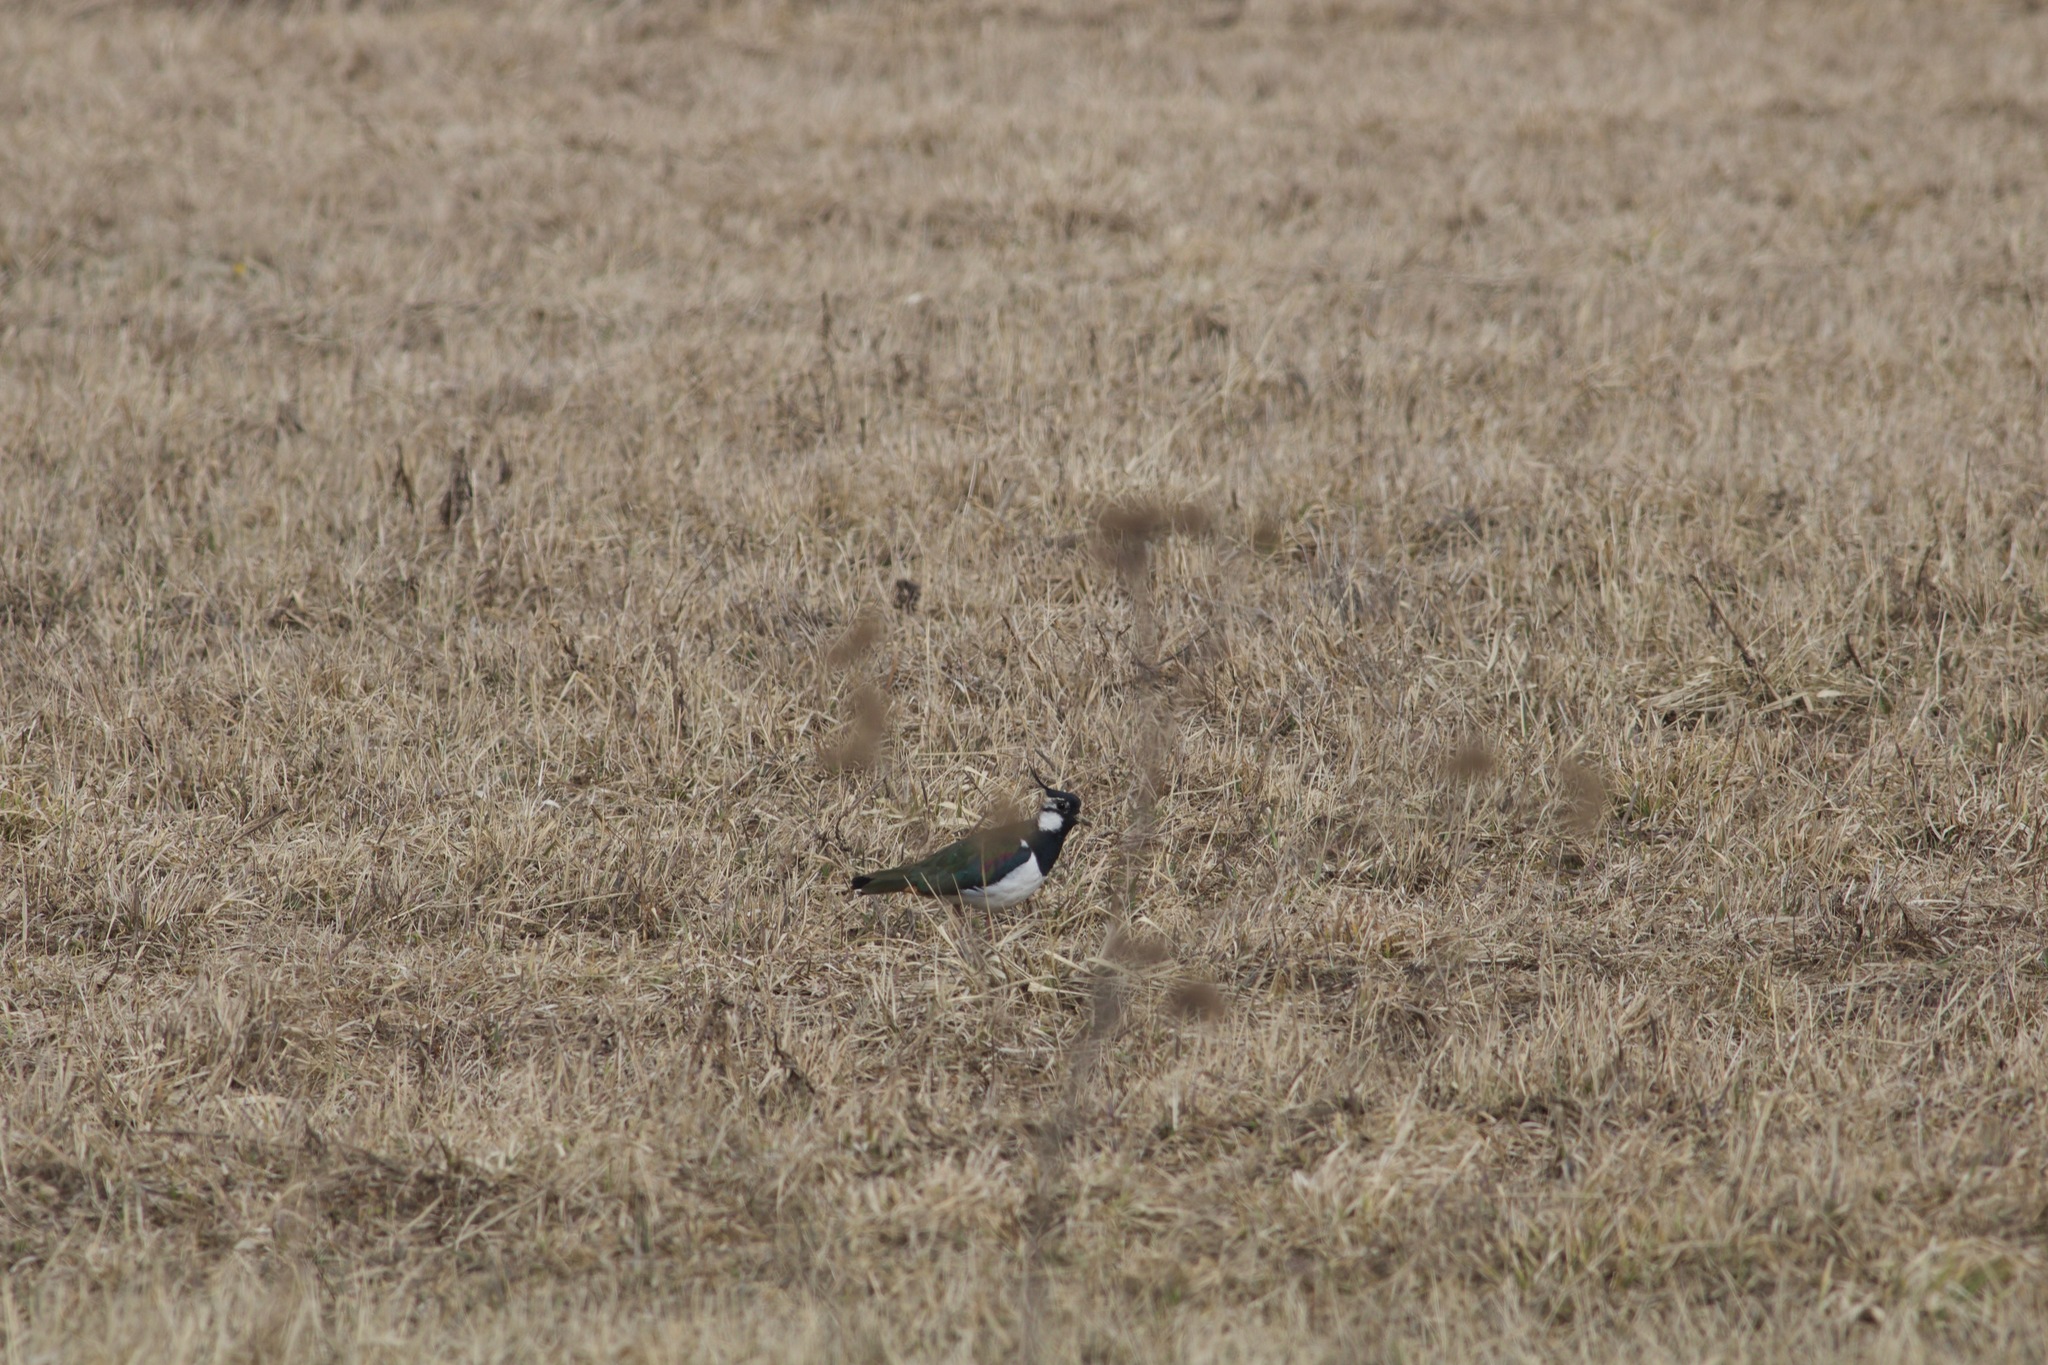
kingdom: Animalia
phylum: Chordata
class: Aves
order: Charadriiformes
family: Charadriidae
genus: Vanellus
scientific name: Vanellus vanellus
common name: Northern lapwing
